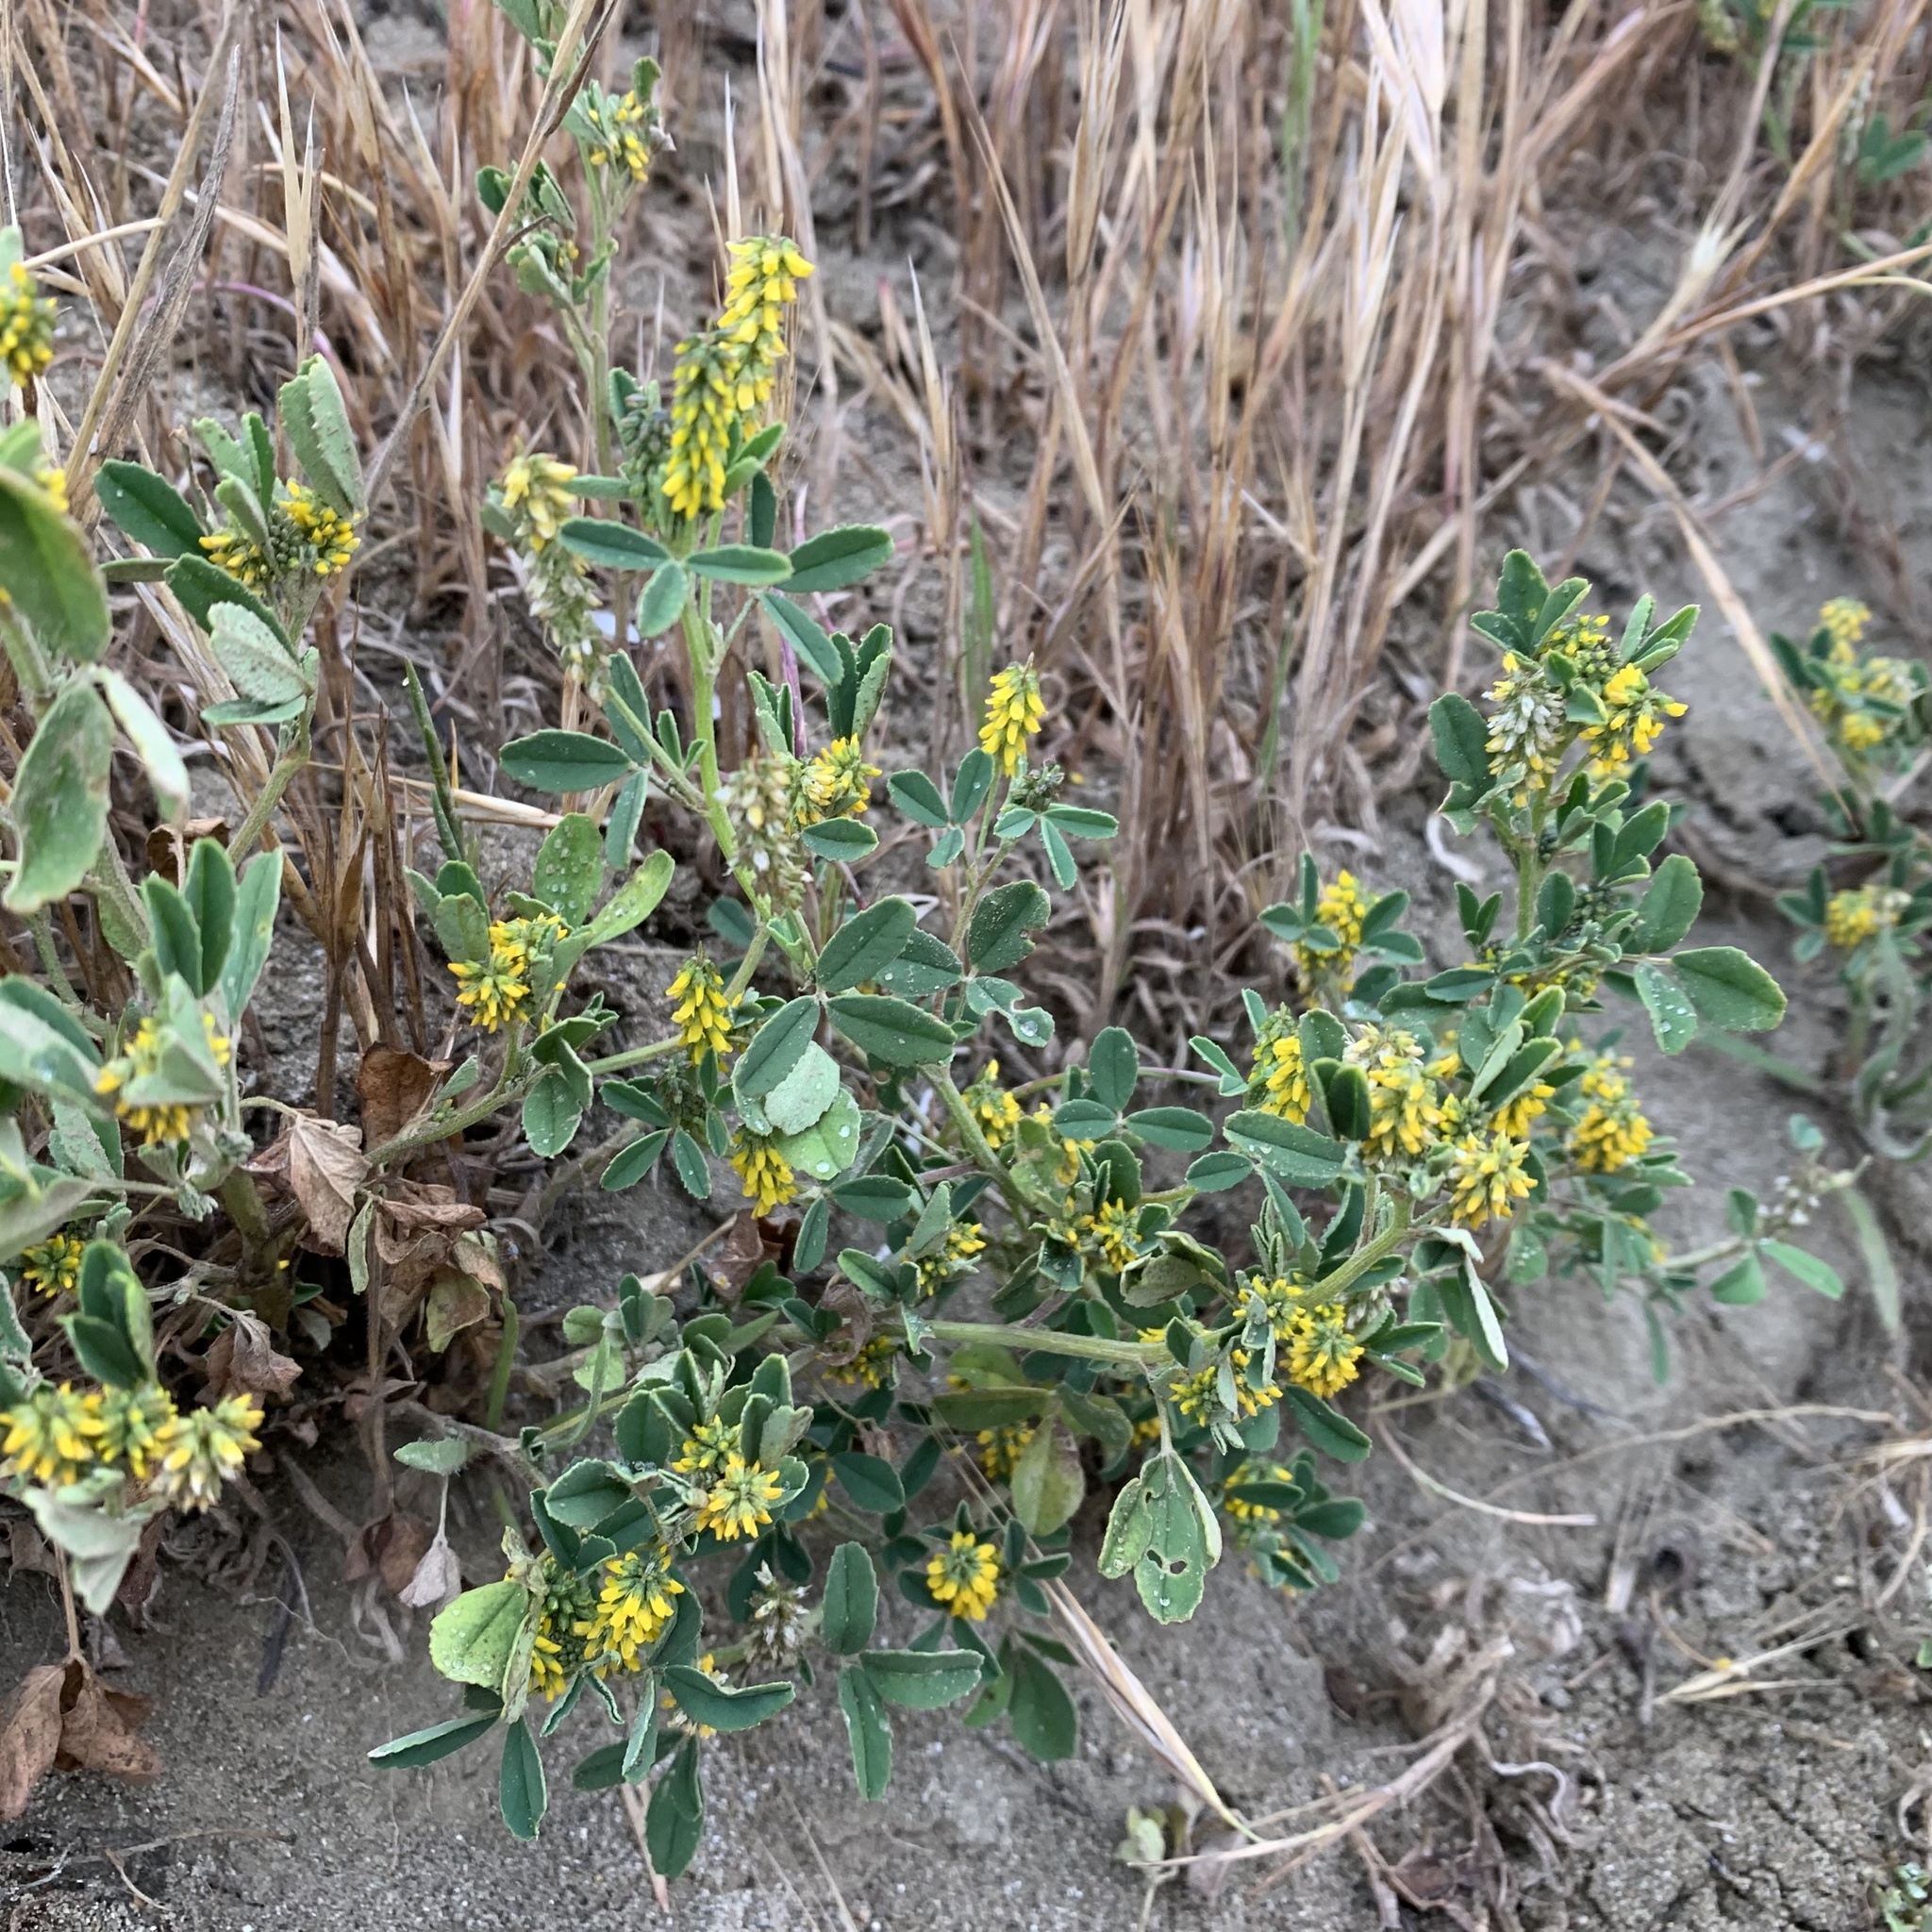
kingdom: Plantae
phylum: Tracheophyta
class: Magnoliopsida
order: Fabales
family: Fabaceae
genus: Melilotus
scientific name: Melilotus indicus
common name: Small melilot
